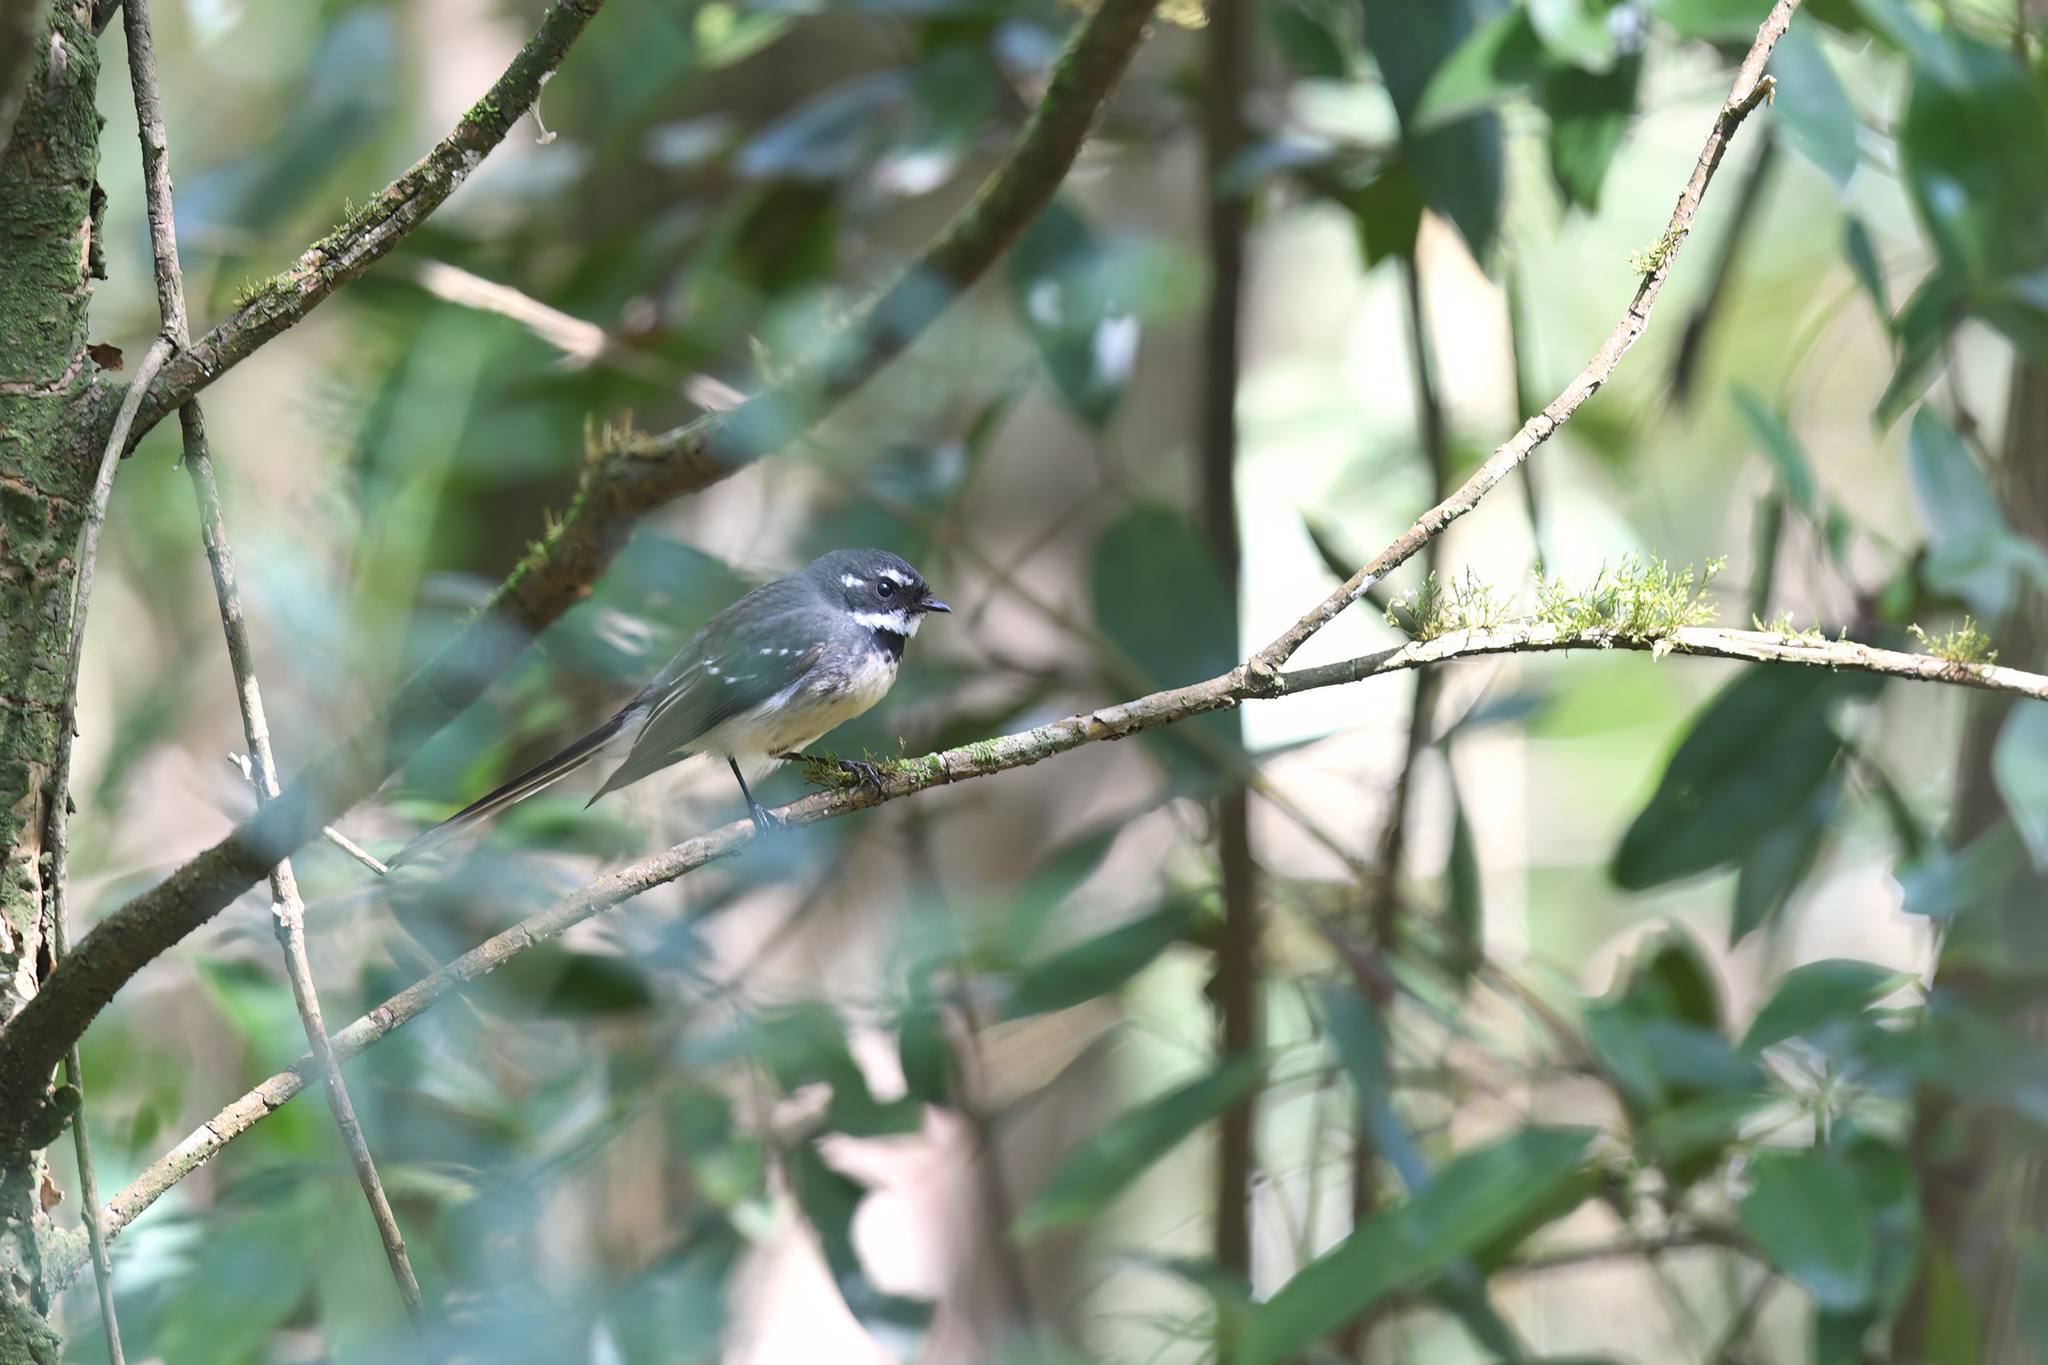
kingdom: Animalia
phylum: Chordata
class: Aves
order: Passeriformes
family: Rhipiduridae
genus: Rhipidura
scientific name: Rhipidura albiscapa
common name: Grey fantail
